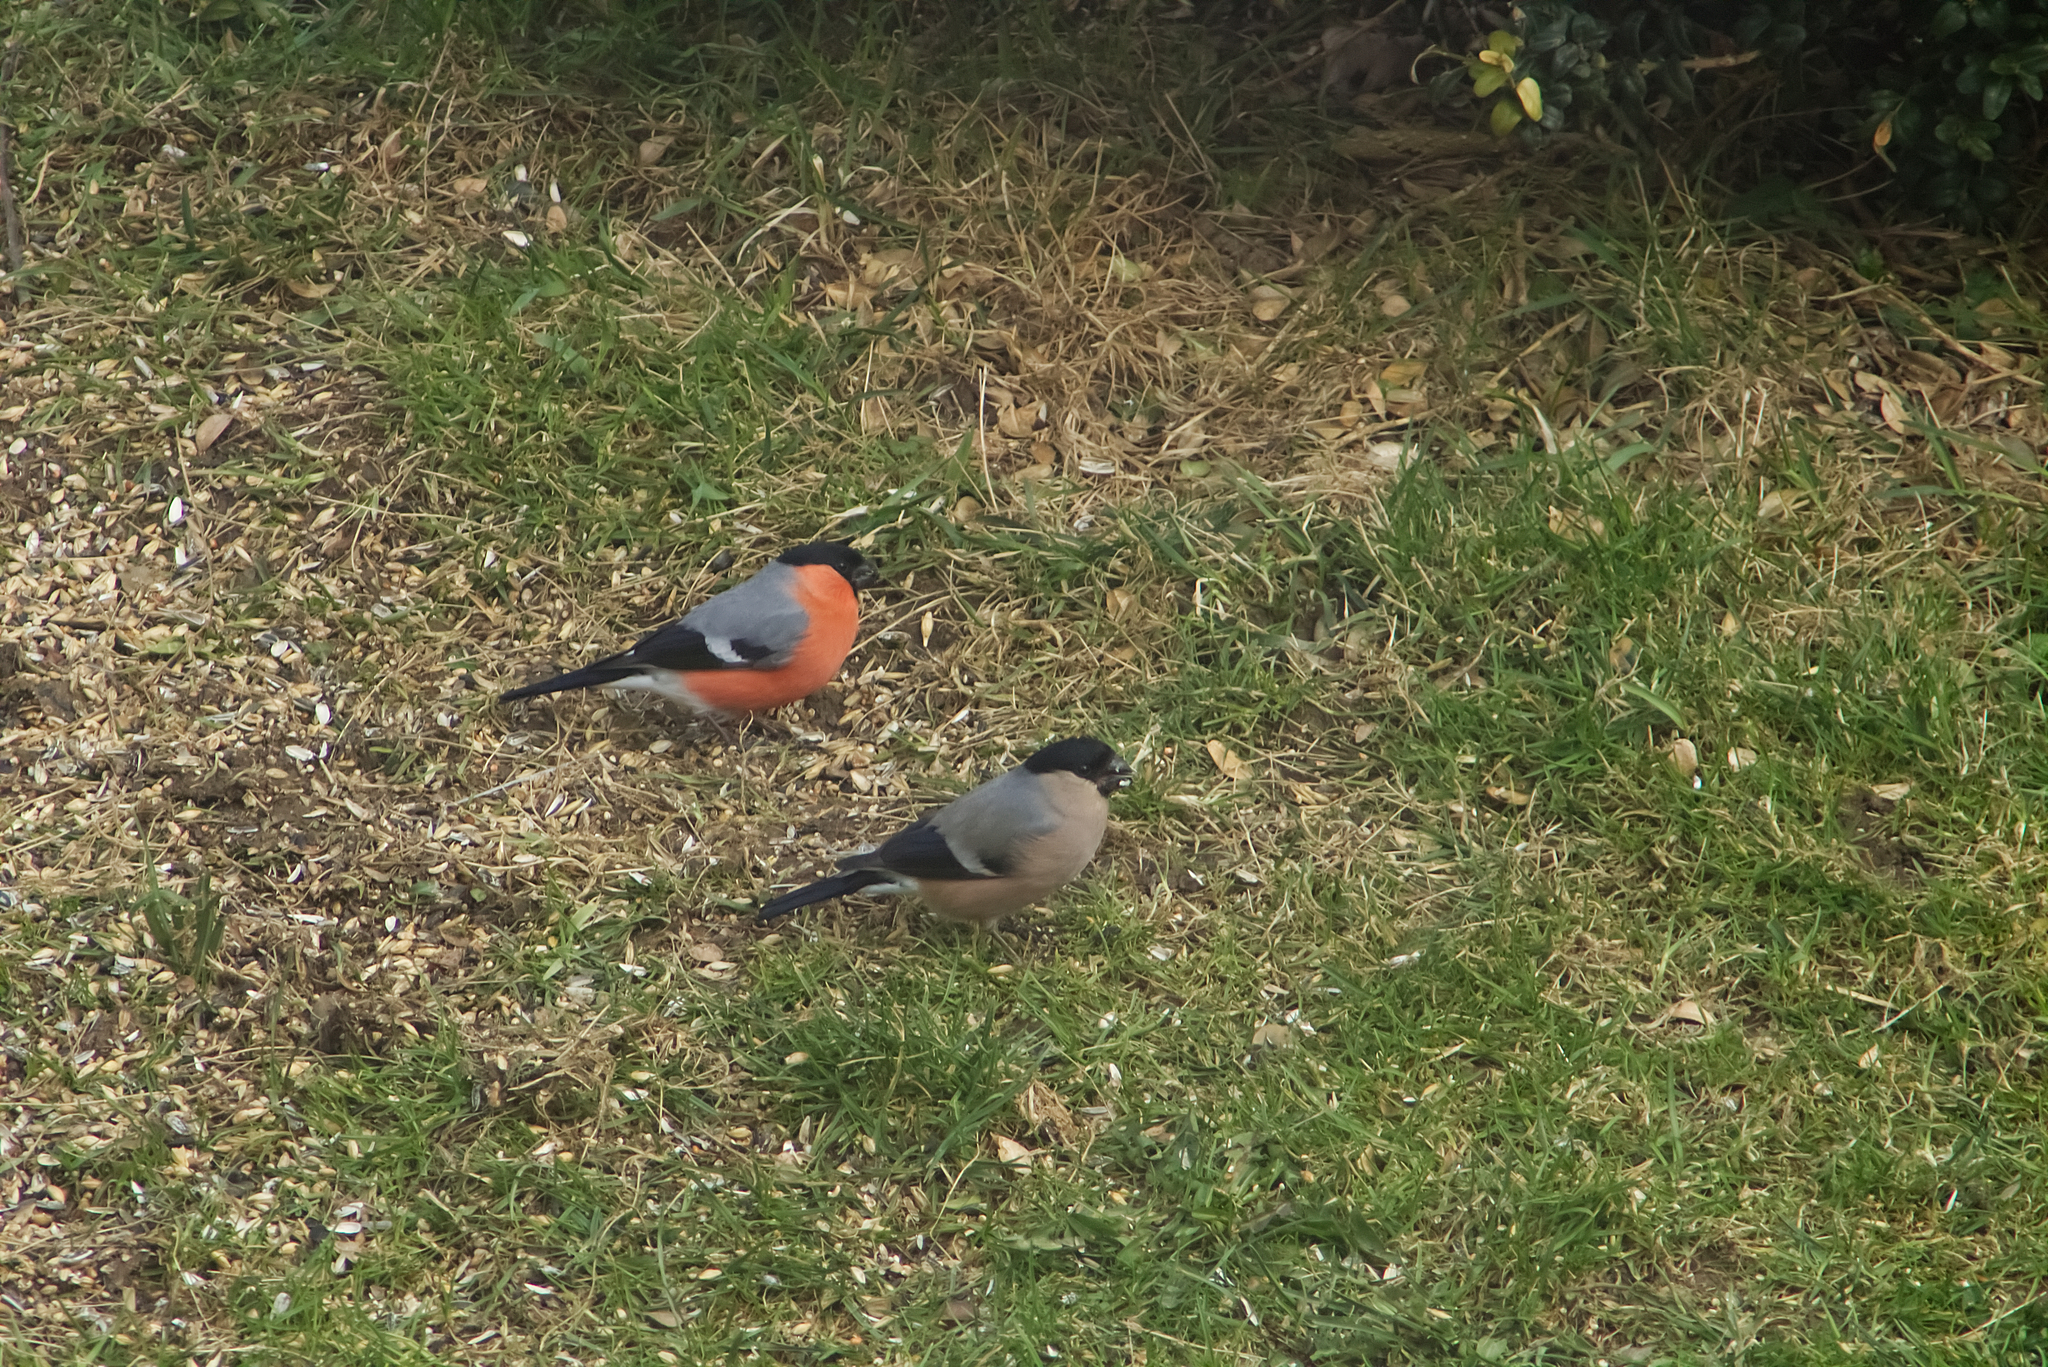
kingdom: Animalia
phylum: Chordata
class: Aves
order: Passeriformes
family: Fringillidae
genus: Pyrrhula
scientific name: Pyrrhula pyrrhula
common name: Eurasian bullfinch
